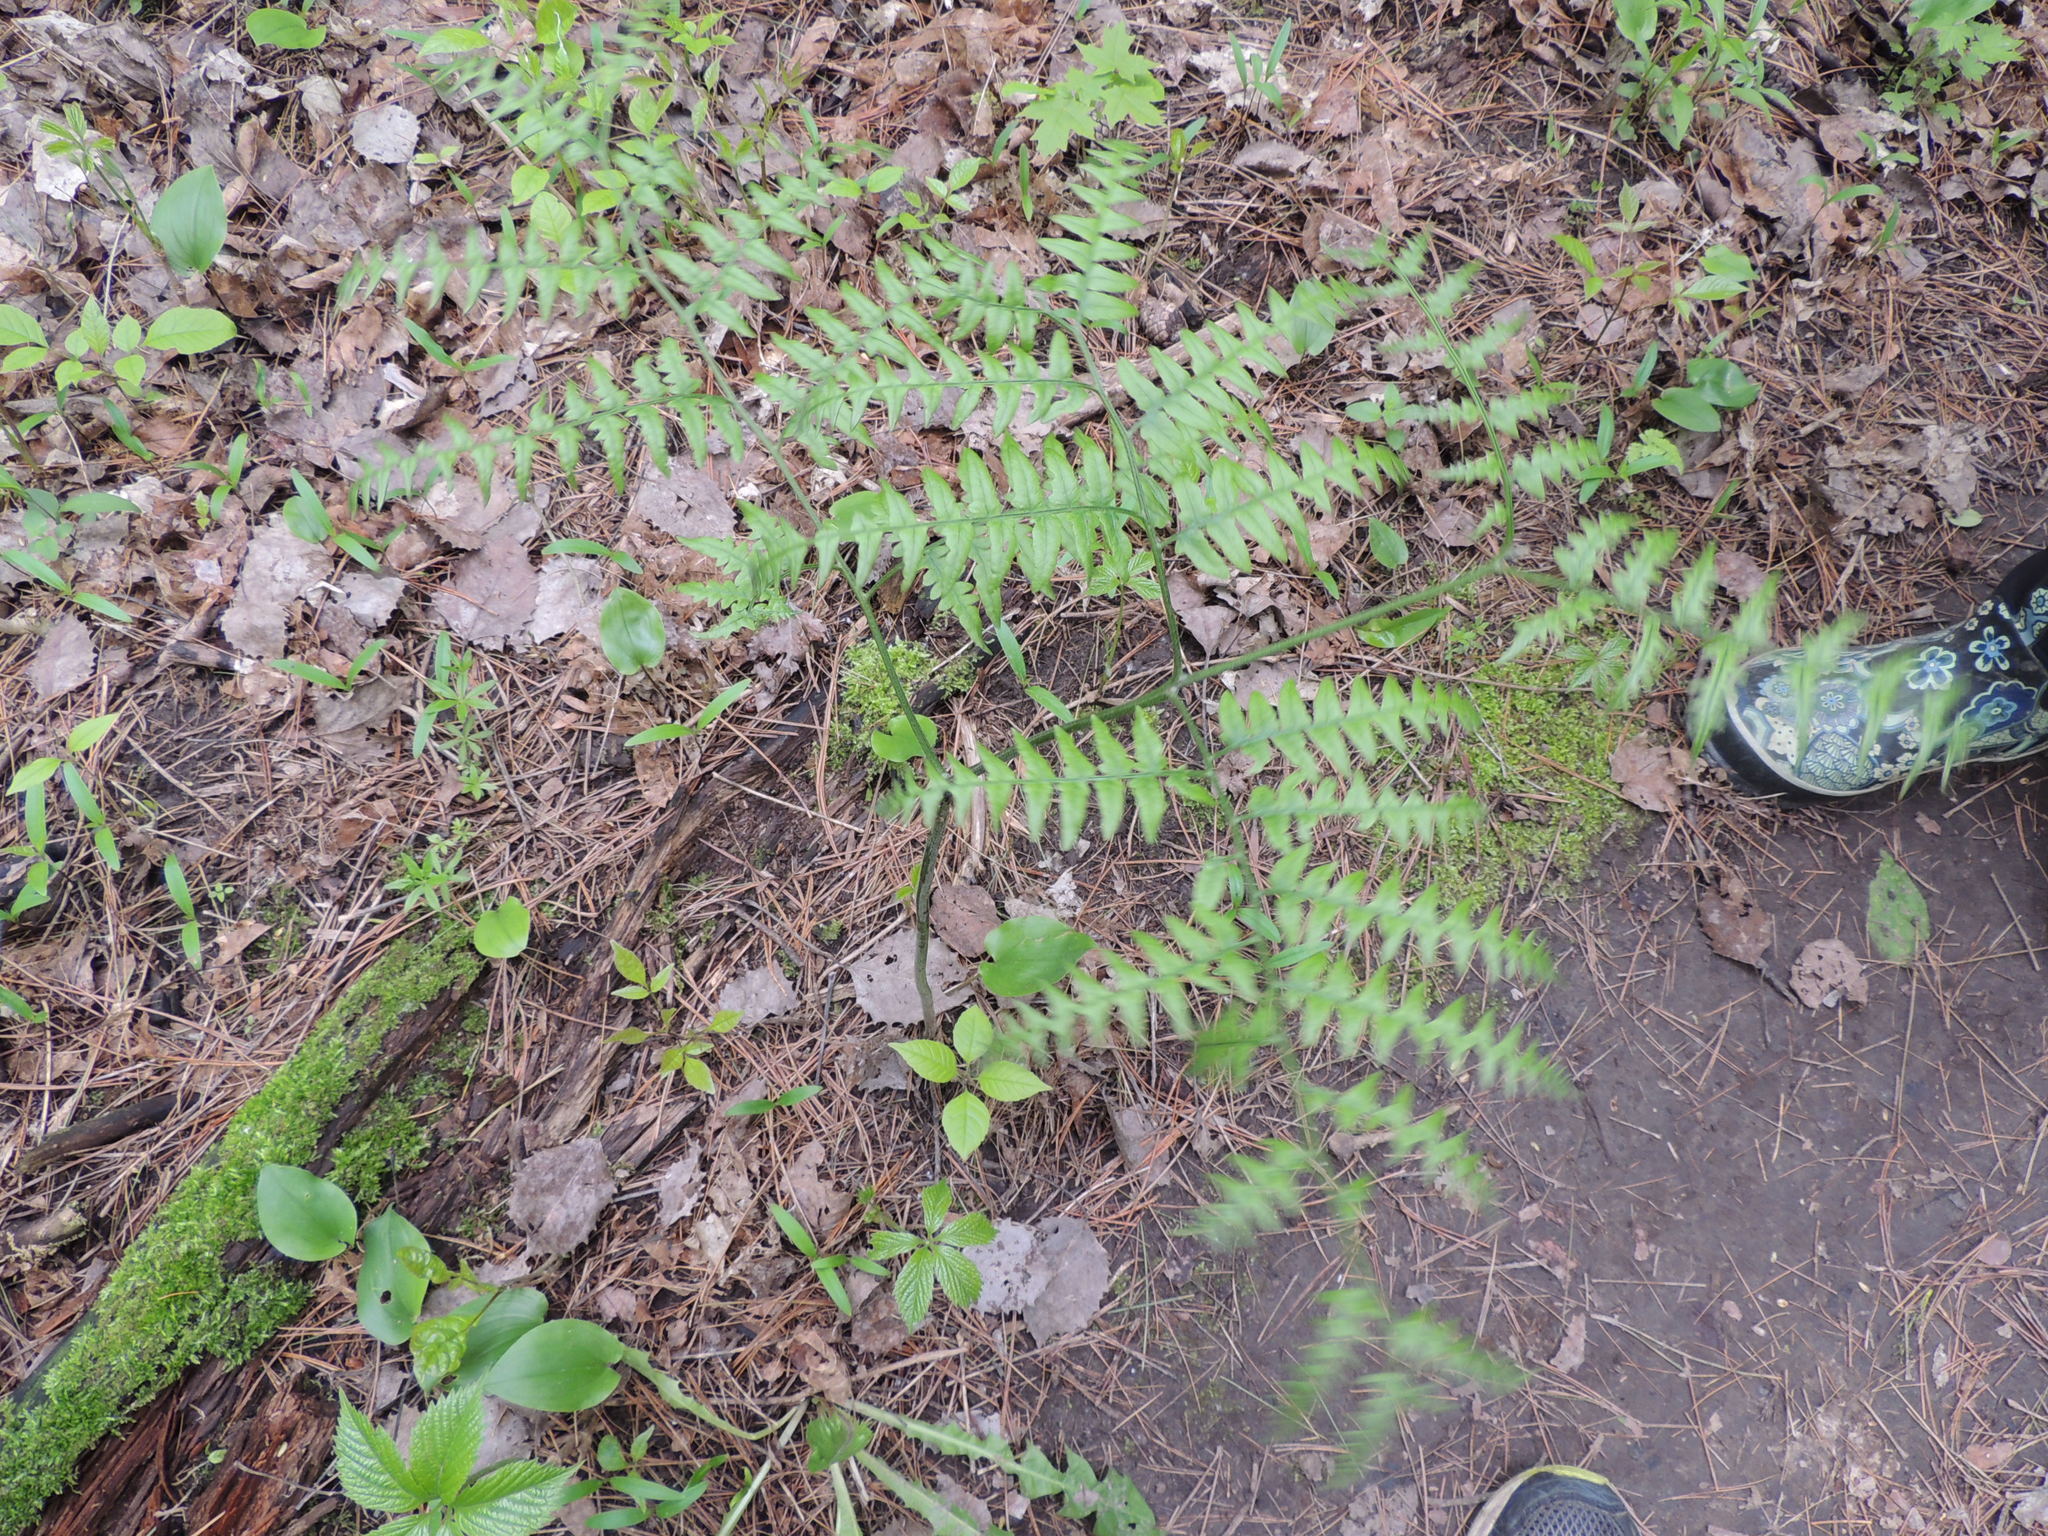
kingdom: Plantae
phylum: Tracheophyta
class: Polypodiopsida
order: Polypodiales
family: Dennstaedtiaceae
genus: Pteridium
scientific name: Pteridium aquilinum
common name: Bracken
